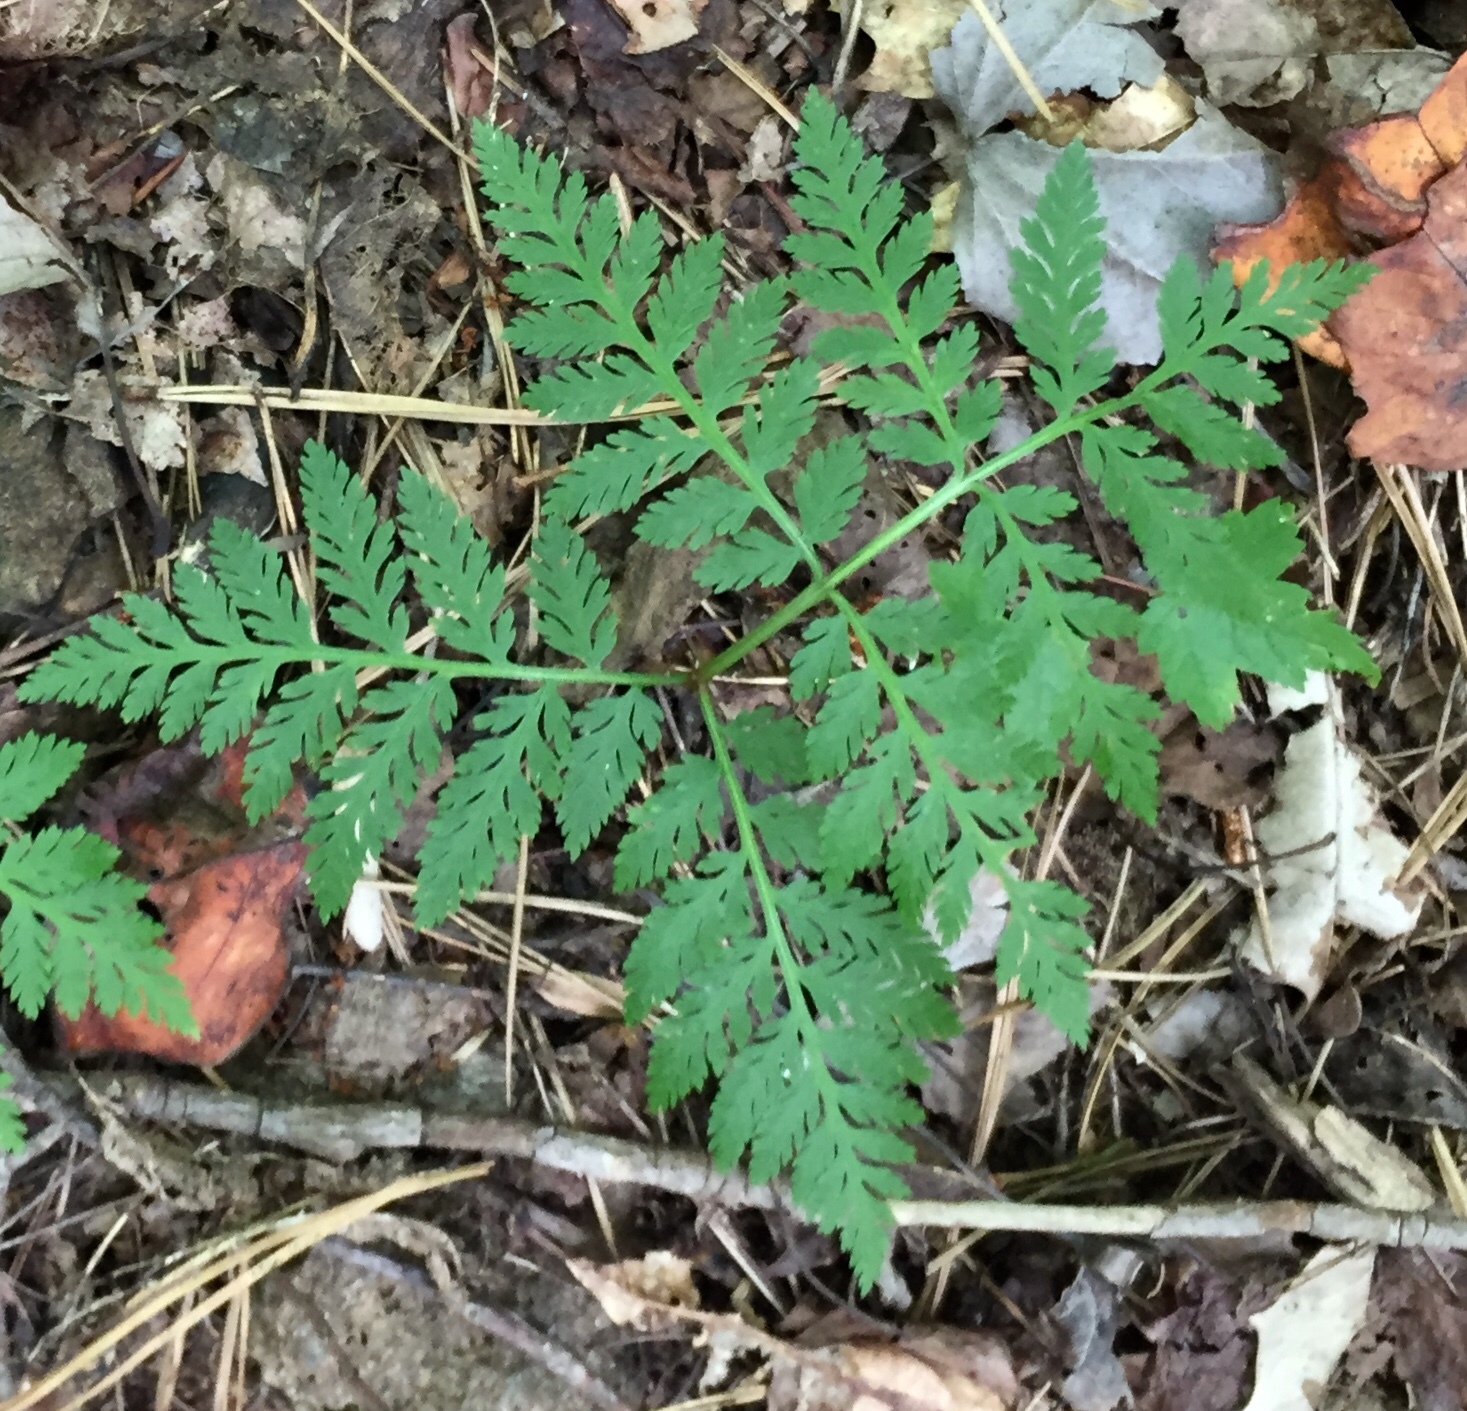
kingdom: Plantae
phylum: Tracheophyta
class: Polypodiopsida
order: Ophioglossales
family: Ophioglossaceae
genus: Botrypus
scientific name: Botrypus virginianus
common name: Common grapefern
